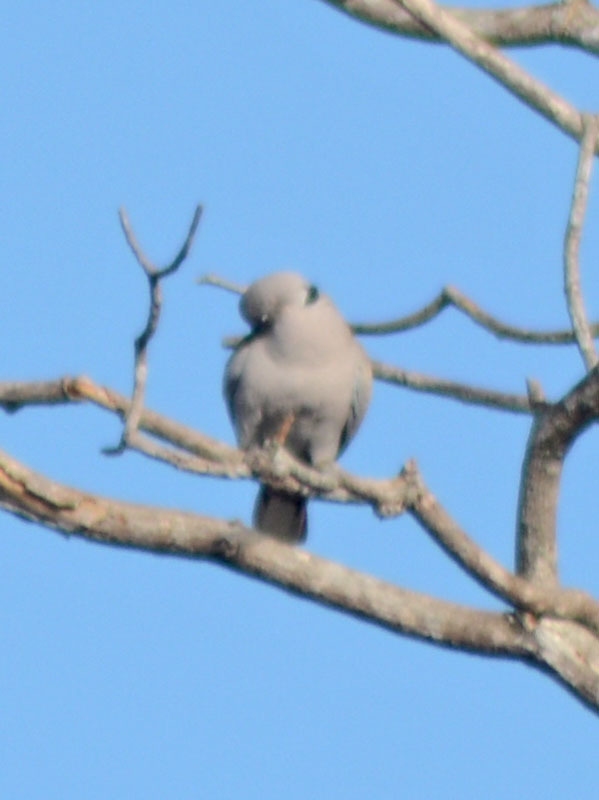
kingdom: Animalia
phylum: Chordata
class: Aves
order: Columbiformes
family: Columbidae
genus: Streptopelia
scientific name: Streptopelia decaocto
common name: Eurasian collared dove
